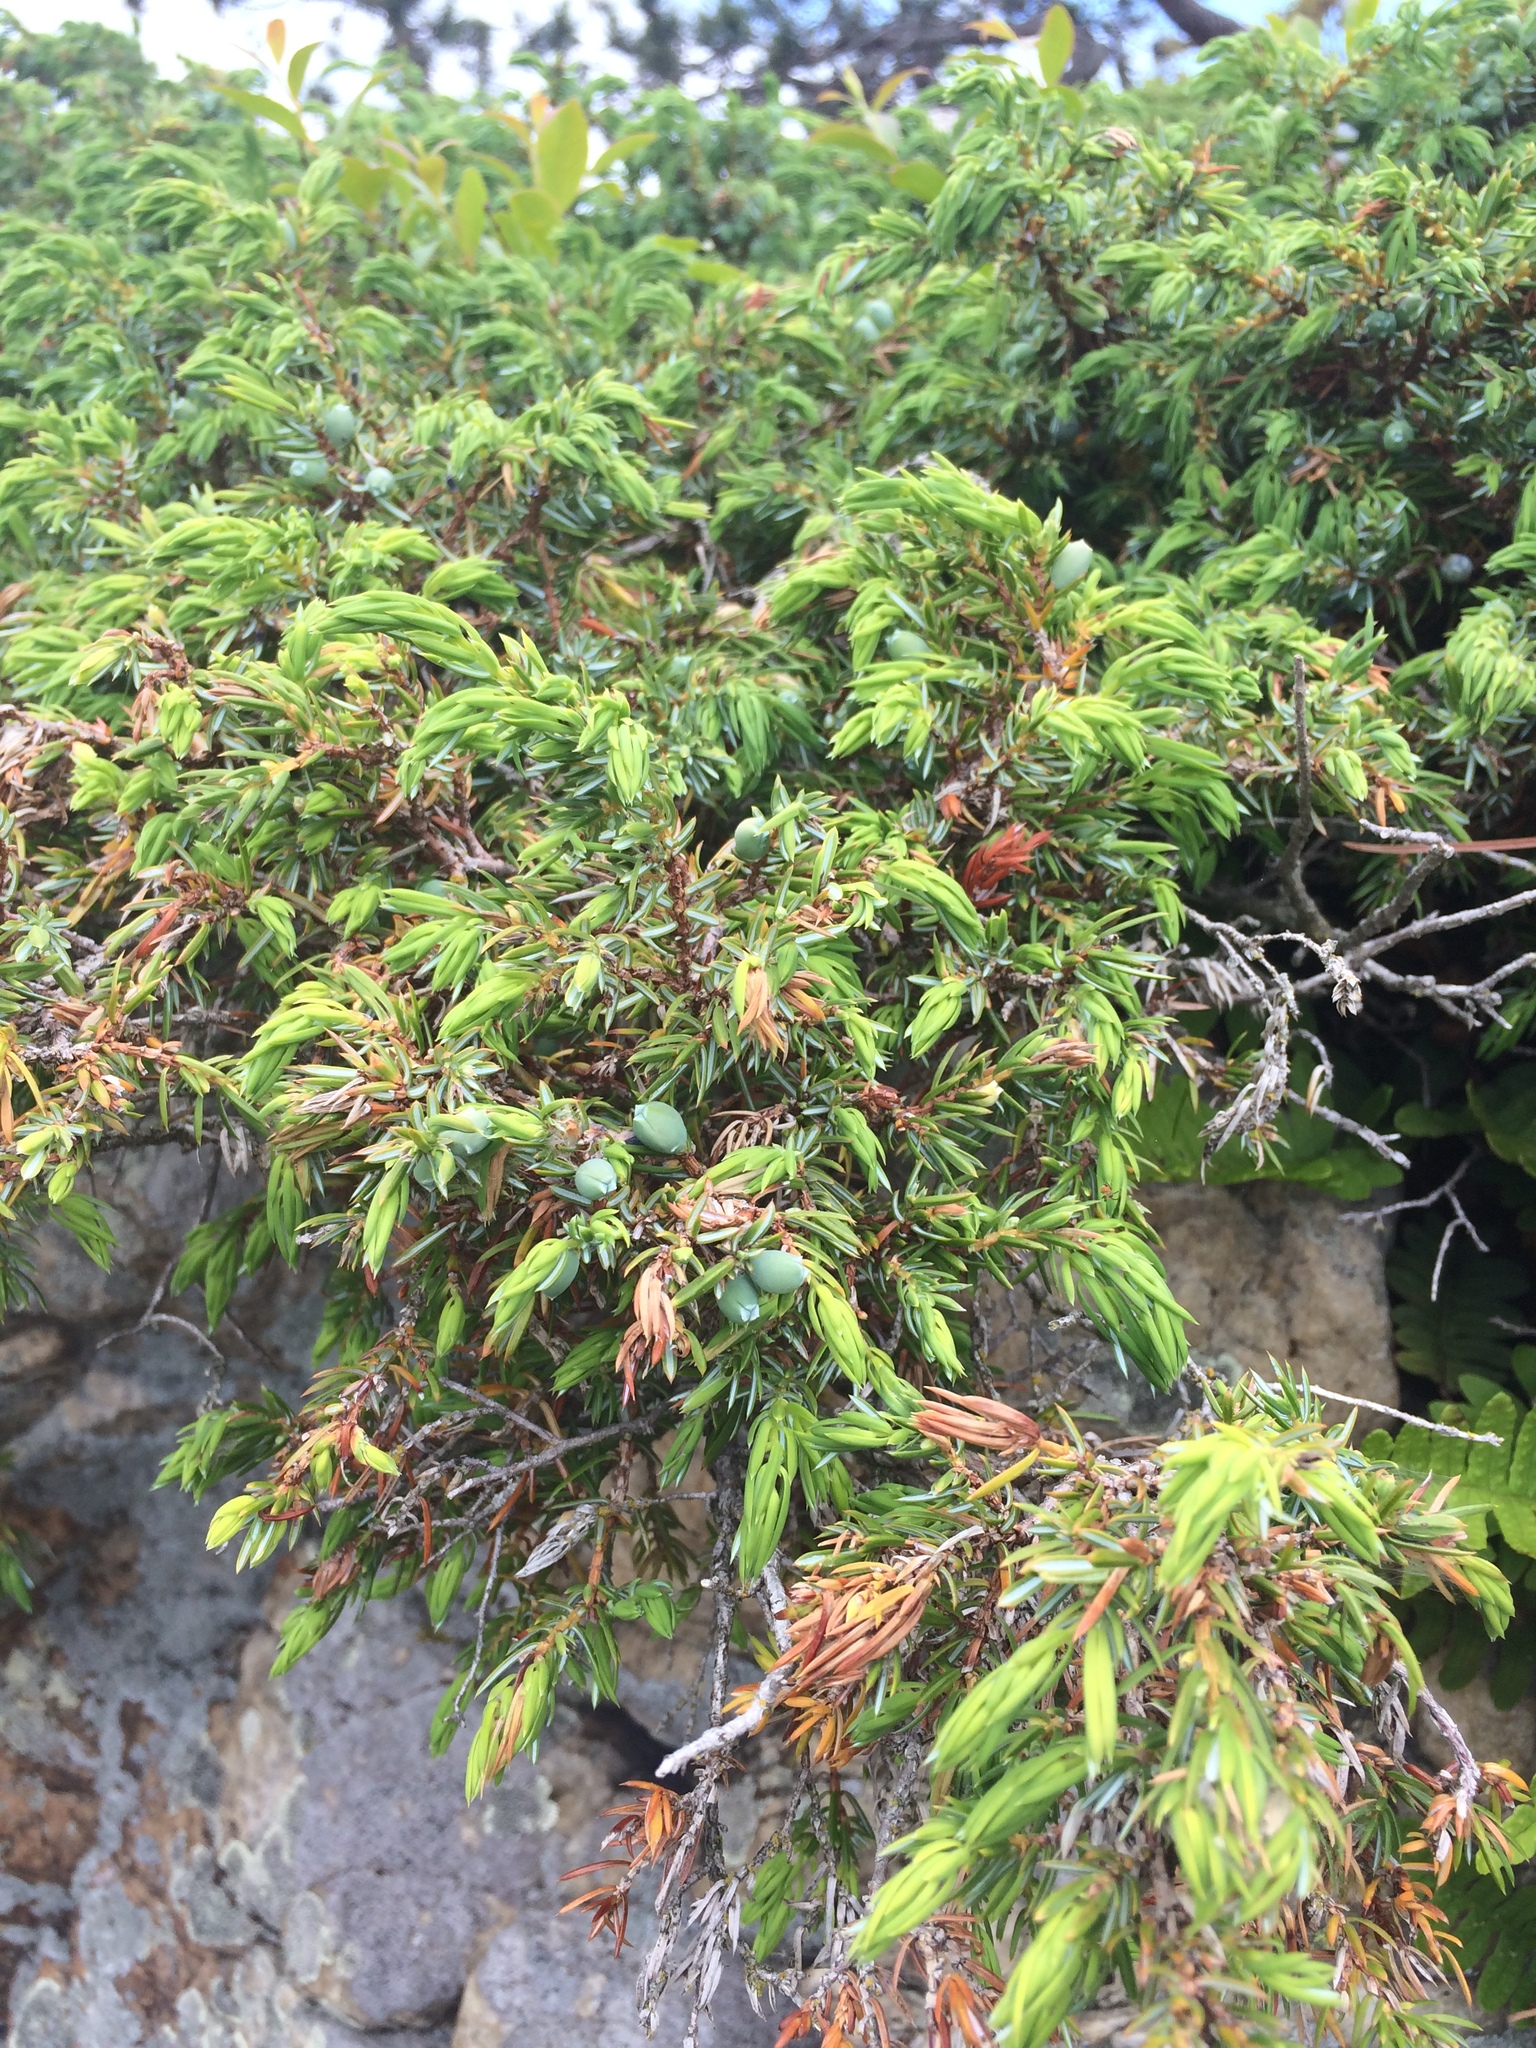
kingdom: Plantae
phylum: Tracheophyta
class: Pinopsida
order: Pinales
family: Cupressaceae
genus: Juniperus
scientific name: Juniperus communis
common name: Common juniper
